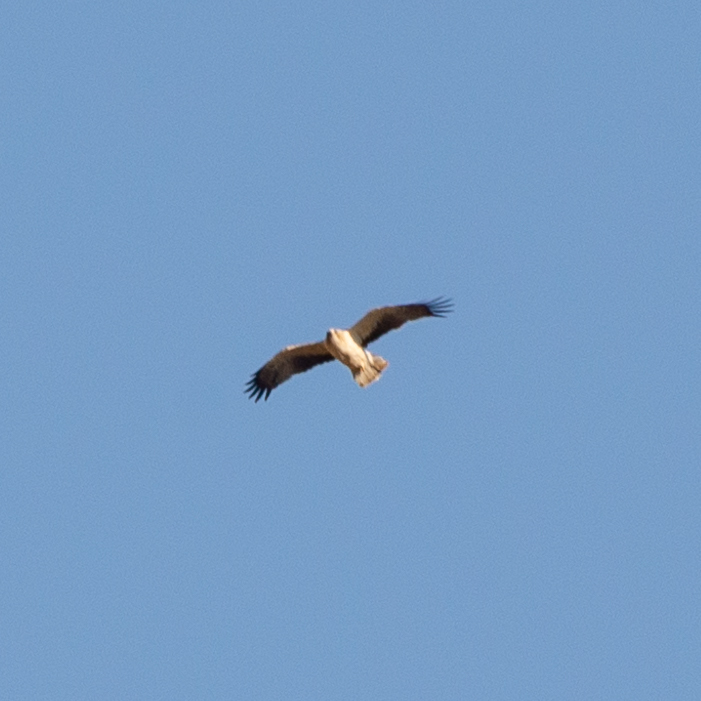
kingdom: Animalia
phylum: Chordata
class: Aves
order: Accipitriformes
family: Accipitridae
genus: Hieraaetus
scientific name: Hieraaetus pennatus
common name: Booted eagle
